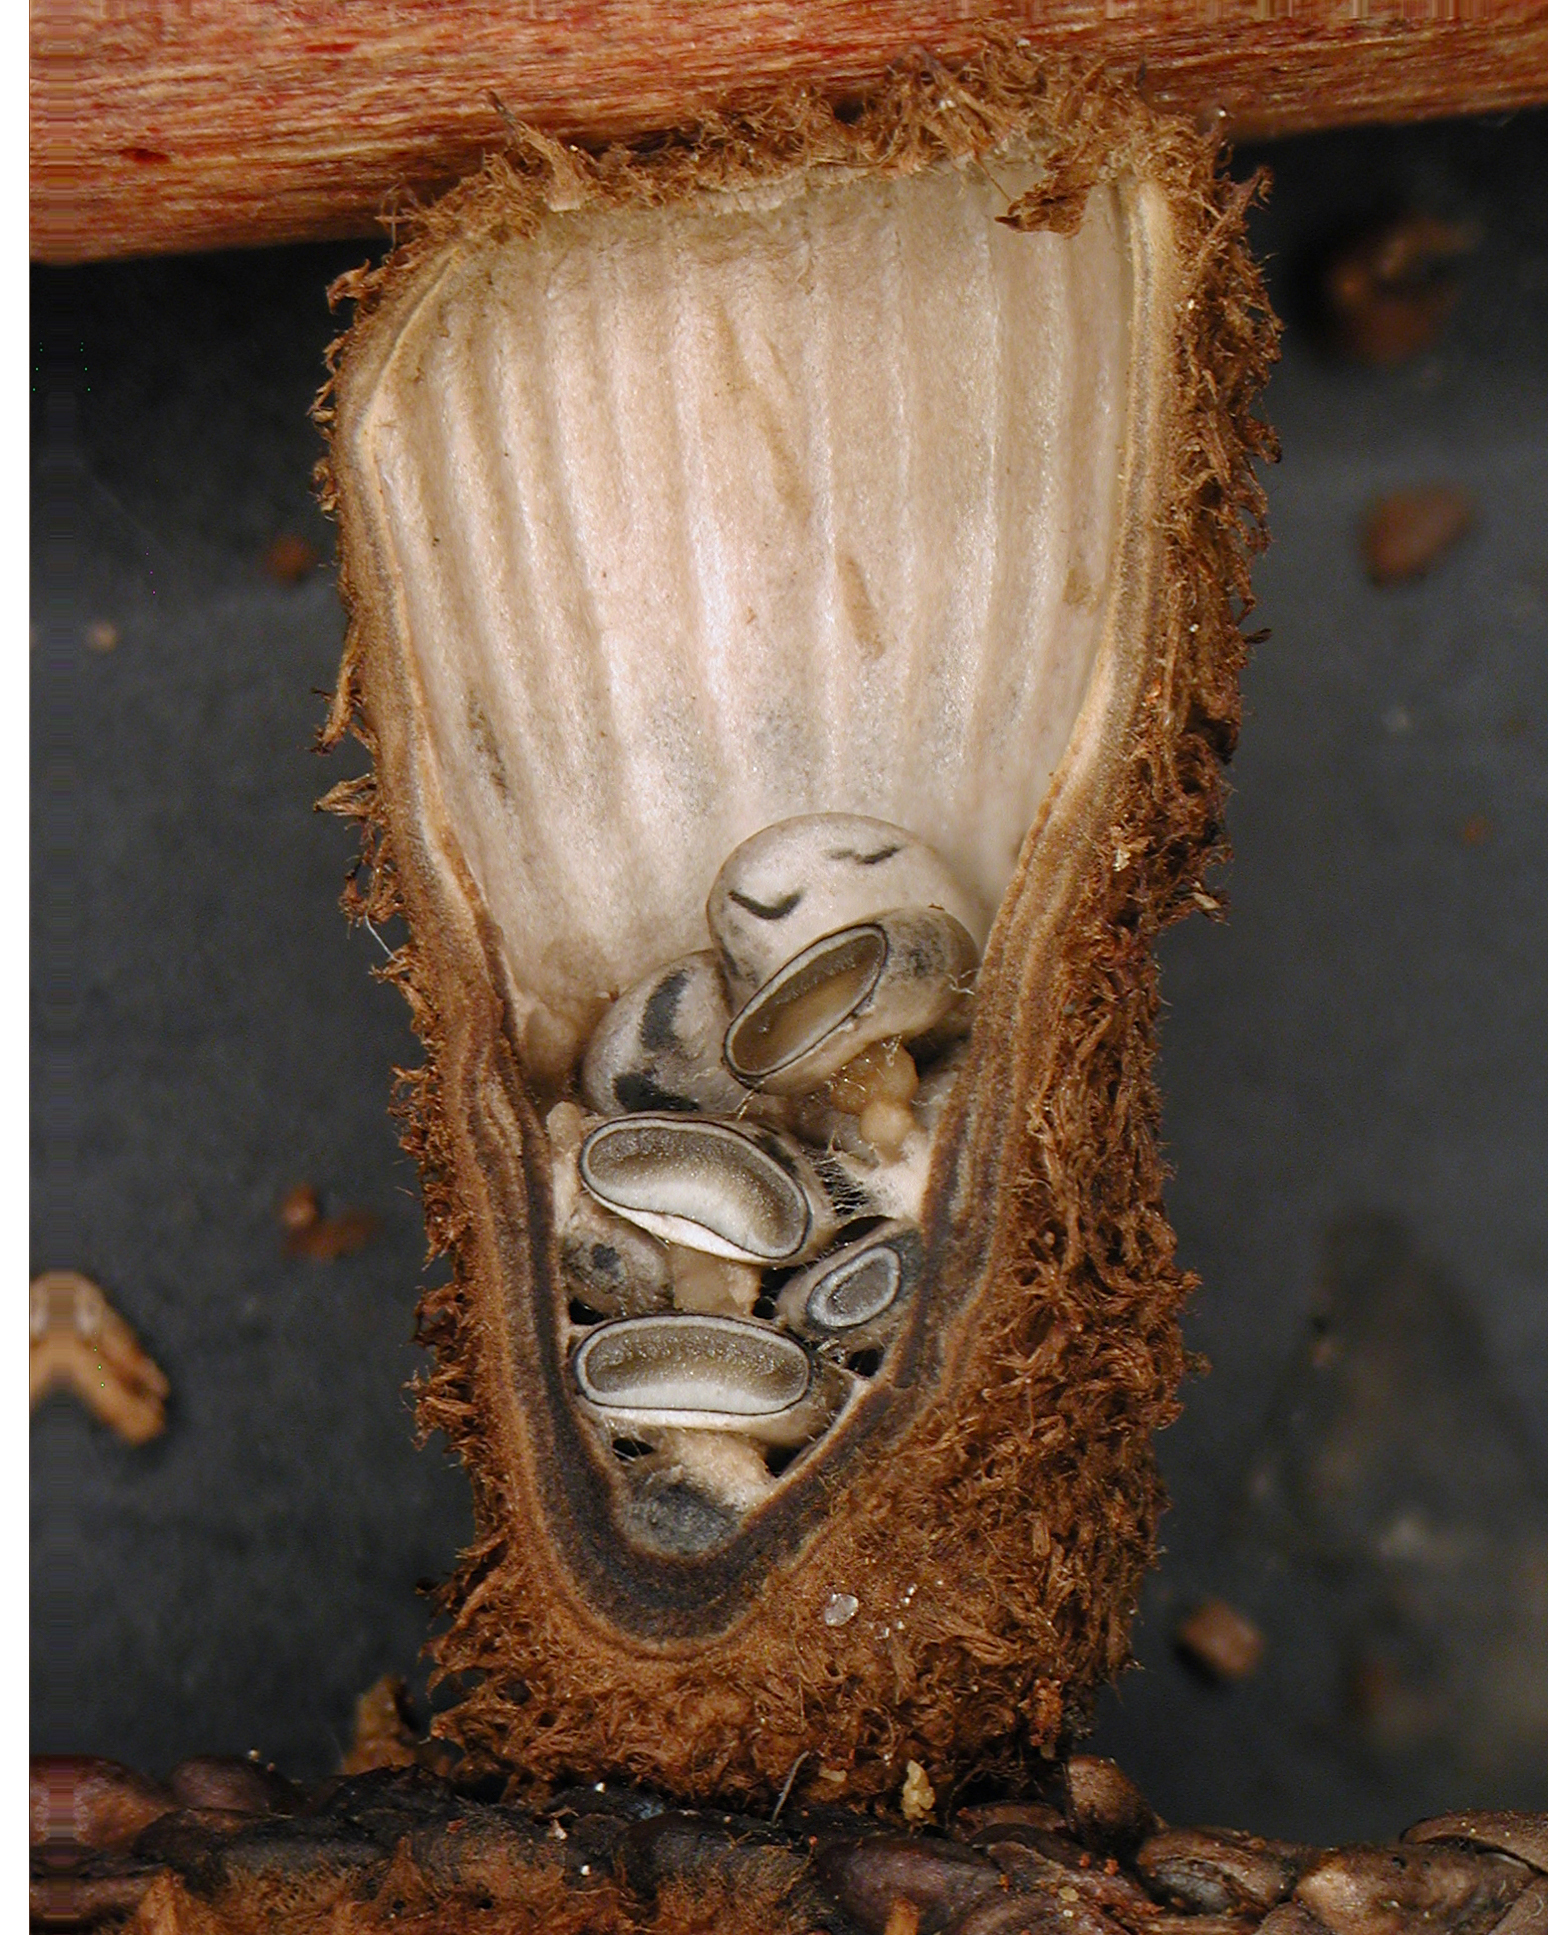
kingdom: Fungi
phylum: Basidiomycota
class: Agaricomycetes
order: Agaricales
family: Agaricaceae
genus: Cyathus
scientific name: Cyathus striatus
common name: Fluted bird's nest
